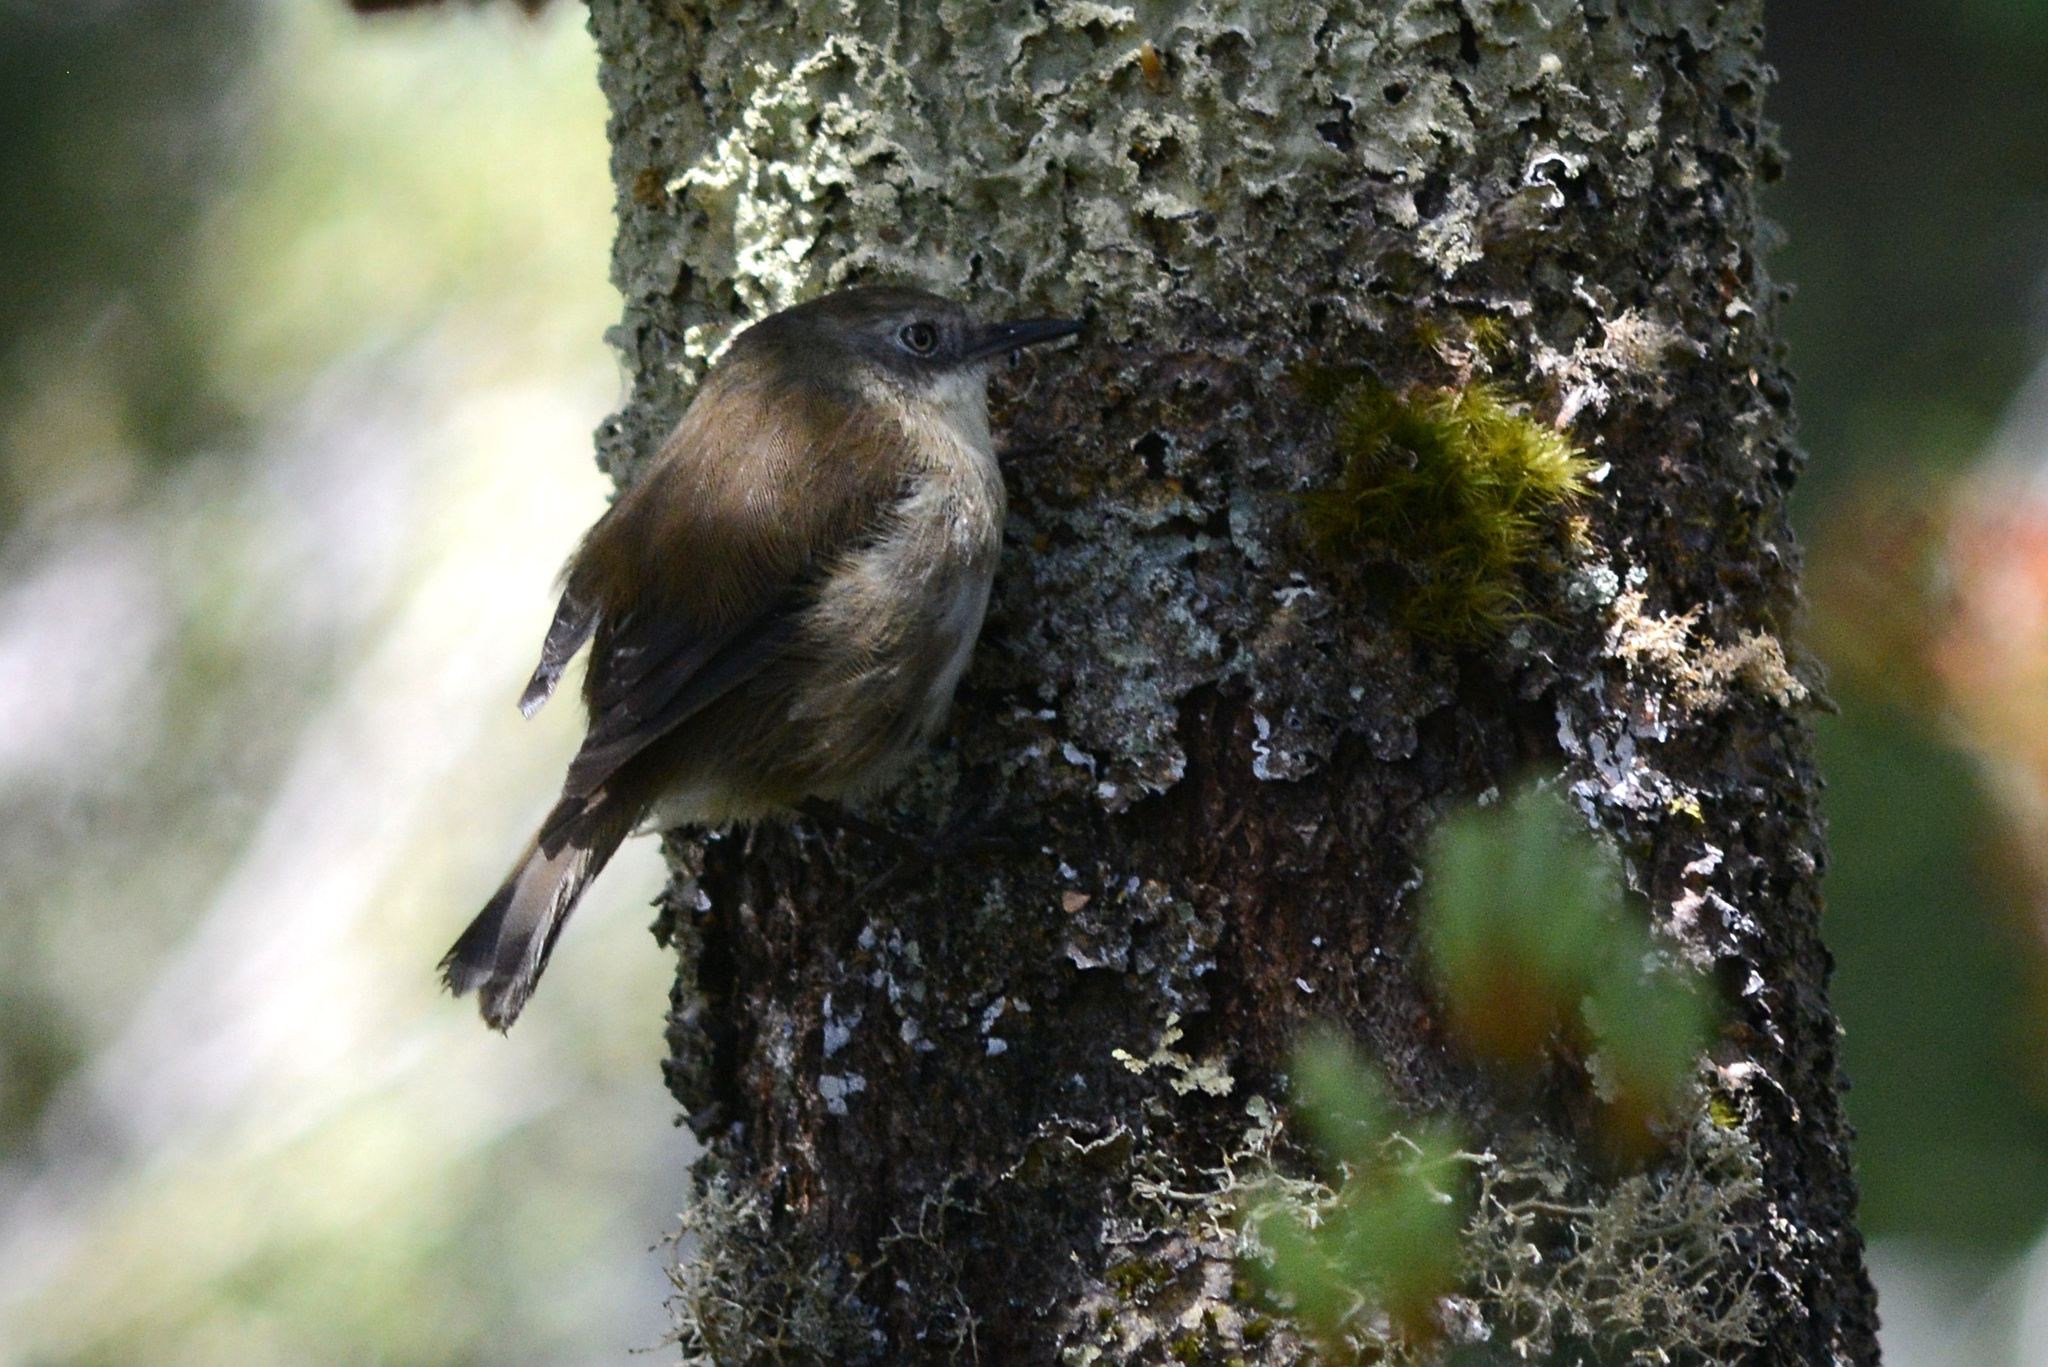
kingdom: Animalia
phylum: Chordata
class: Aves
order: Passeriformes
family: Acanthizidae
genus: Acanthornis
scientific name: Acanthornis magna
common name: Scrubtit
